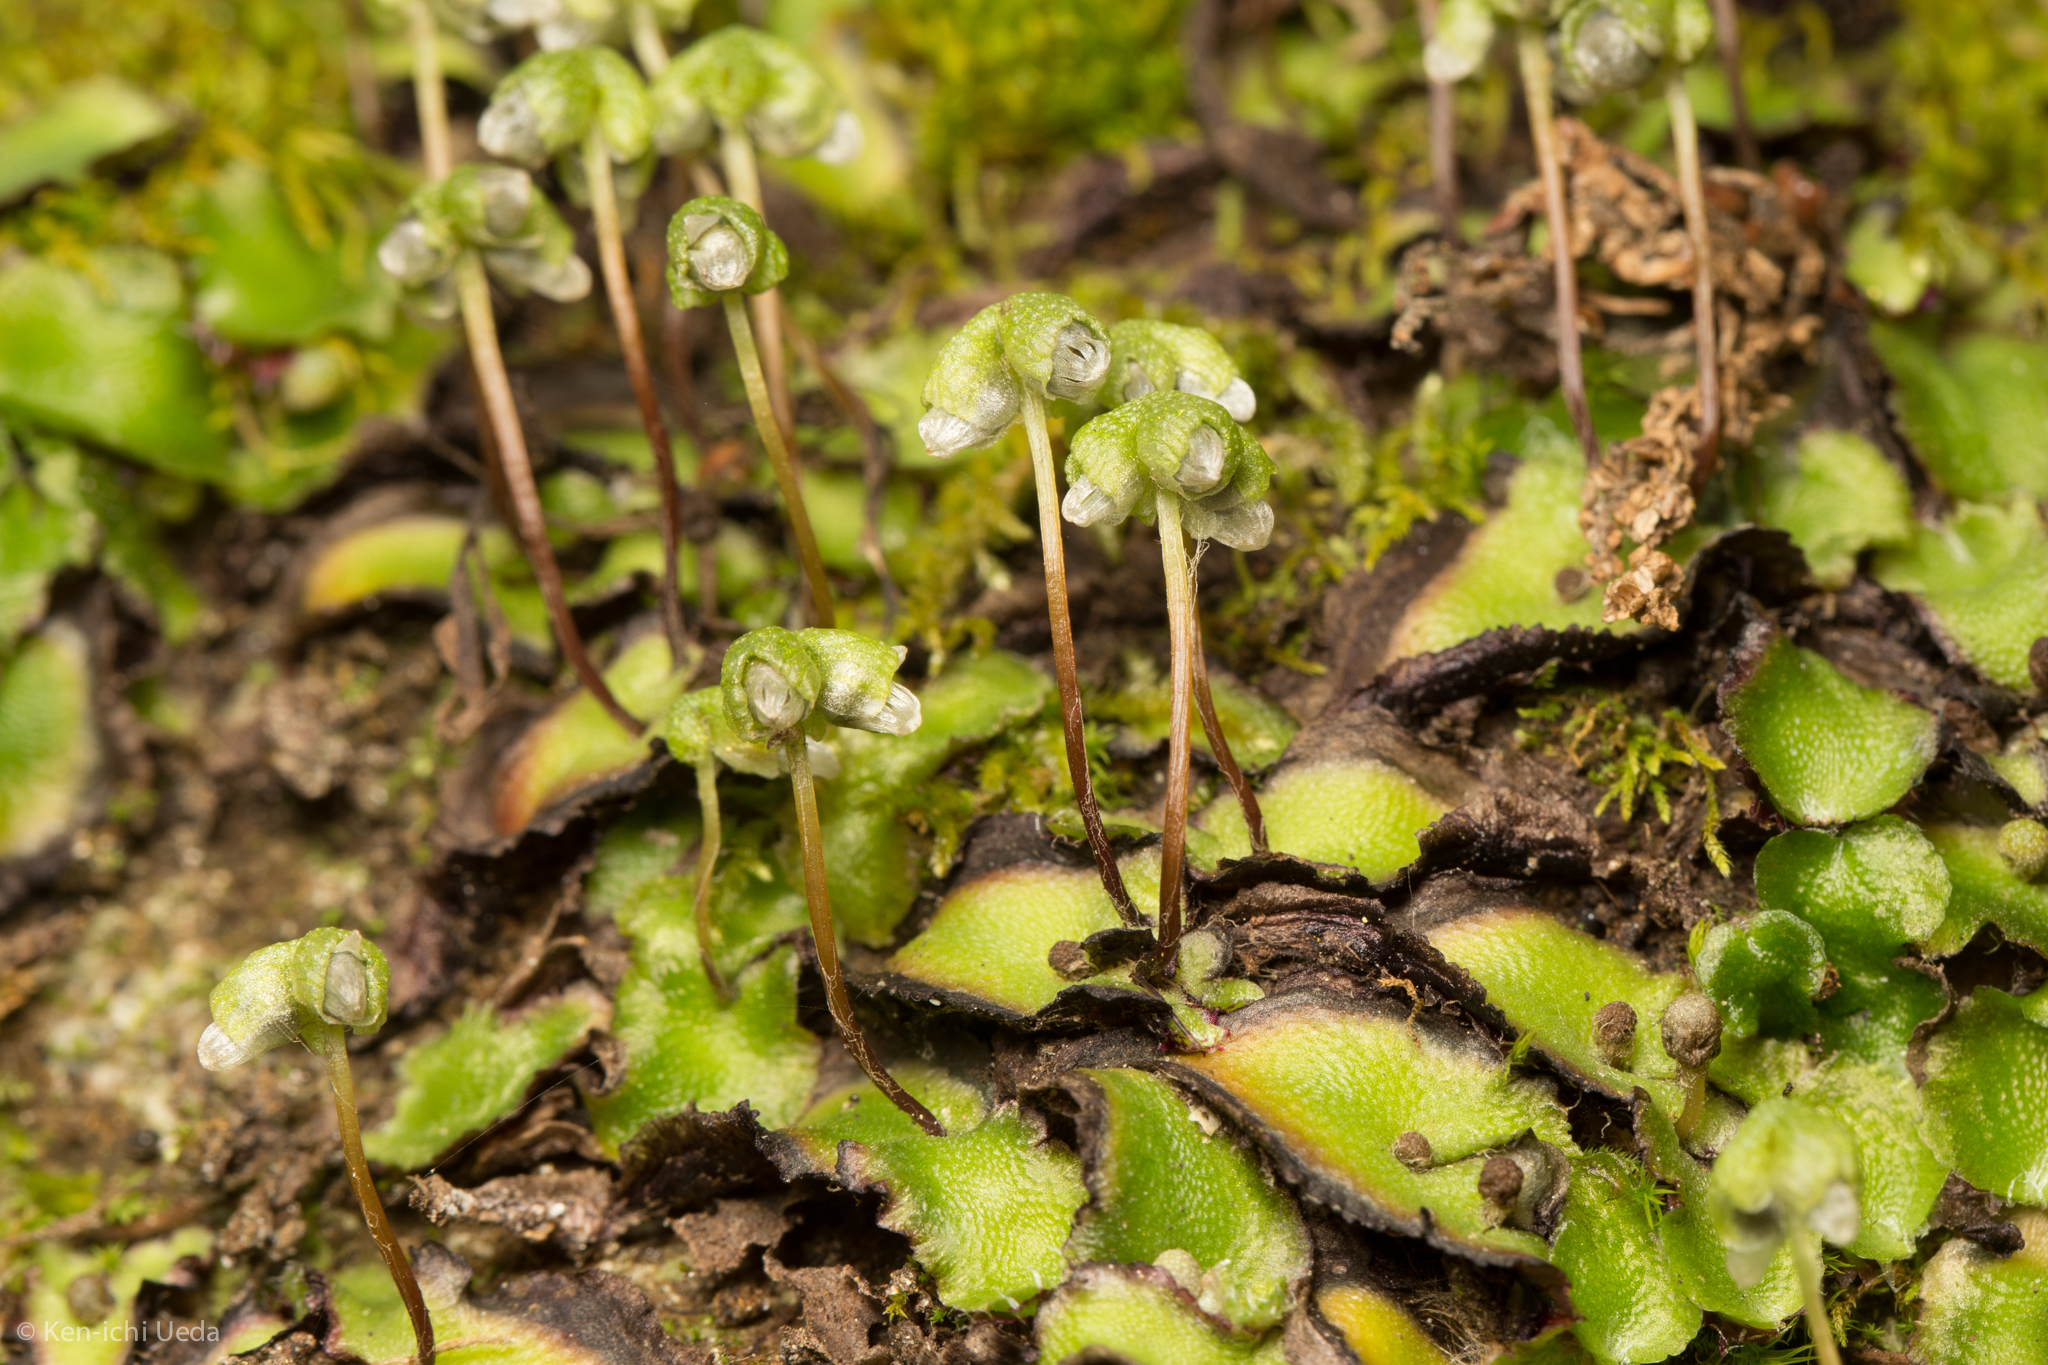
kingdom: Plantae
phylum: Marchantiophyta
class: Marchantiopsida
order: Marchantiales
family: Aytoniaceae
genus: Asterella
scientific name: Asterella californica
